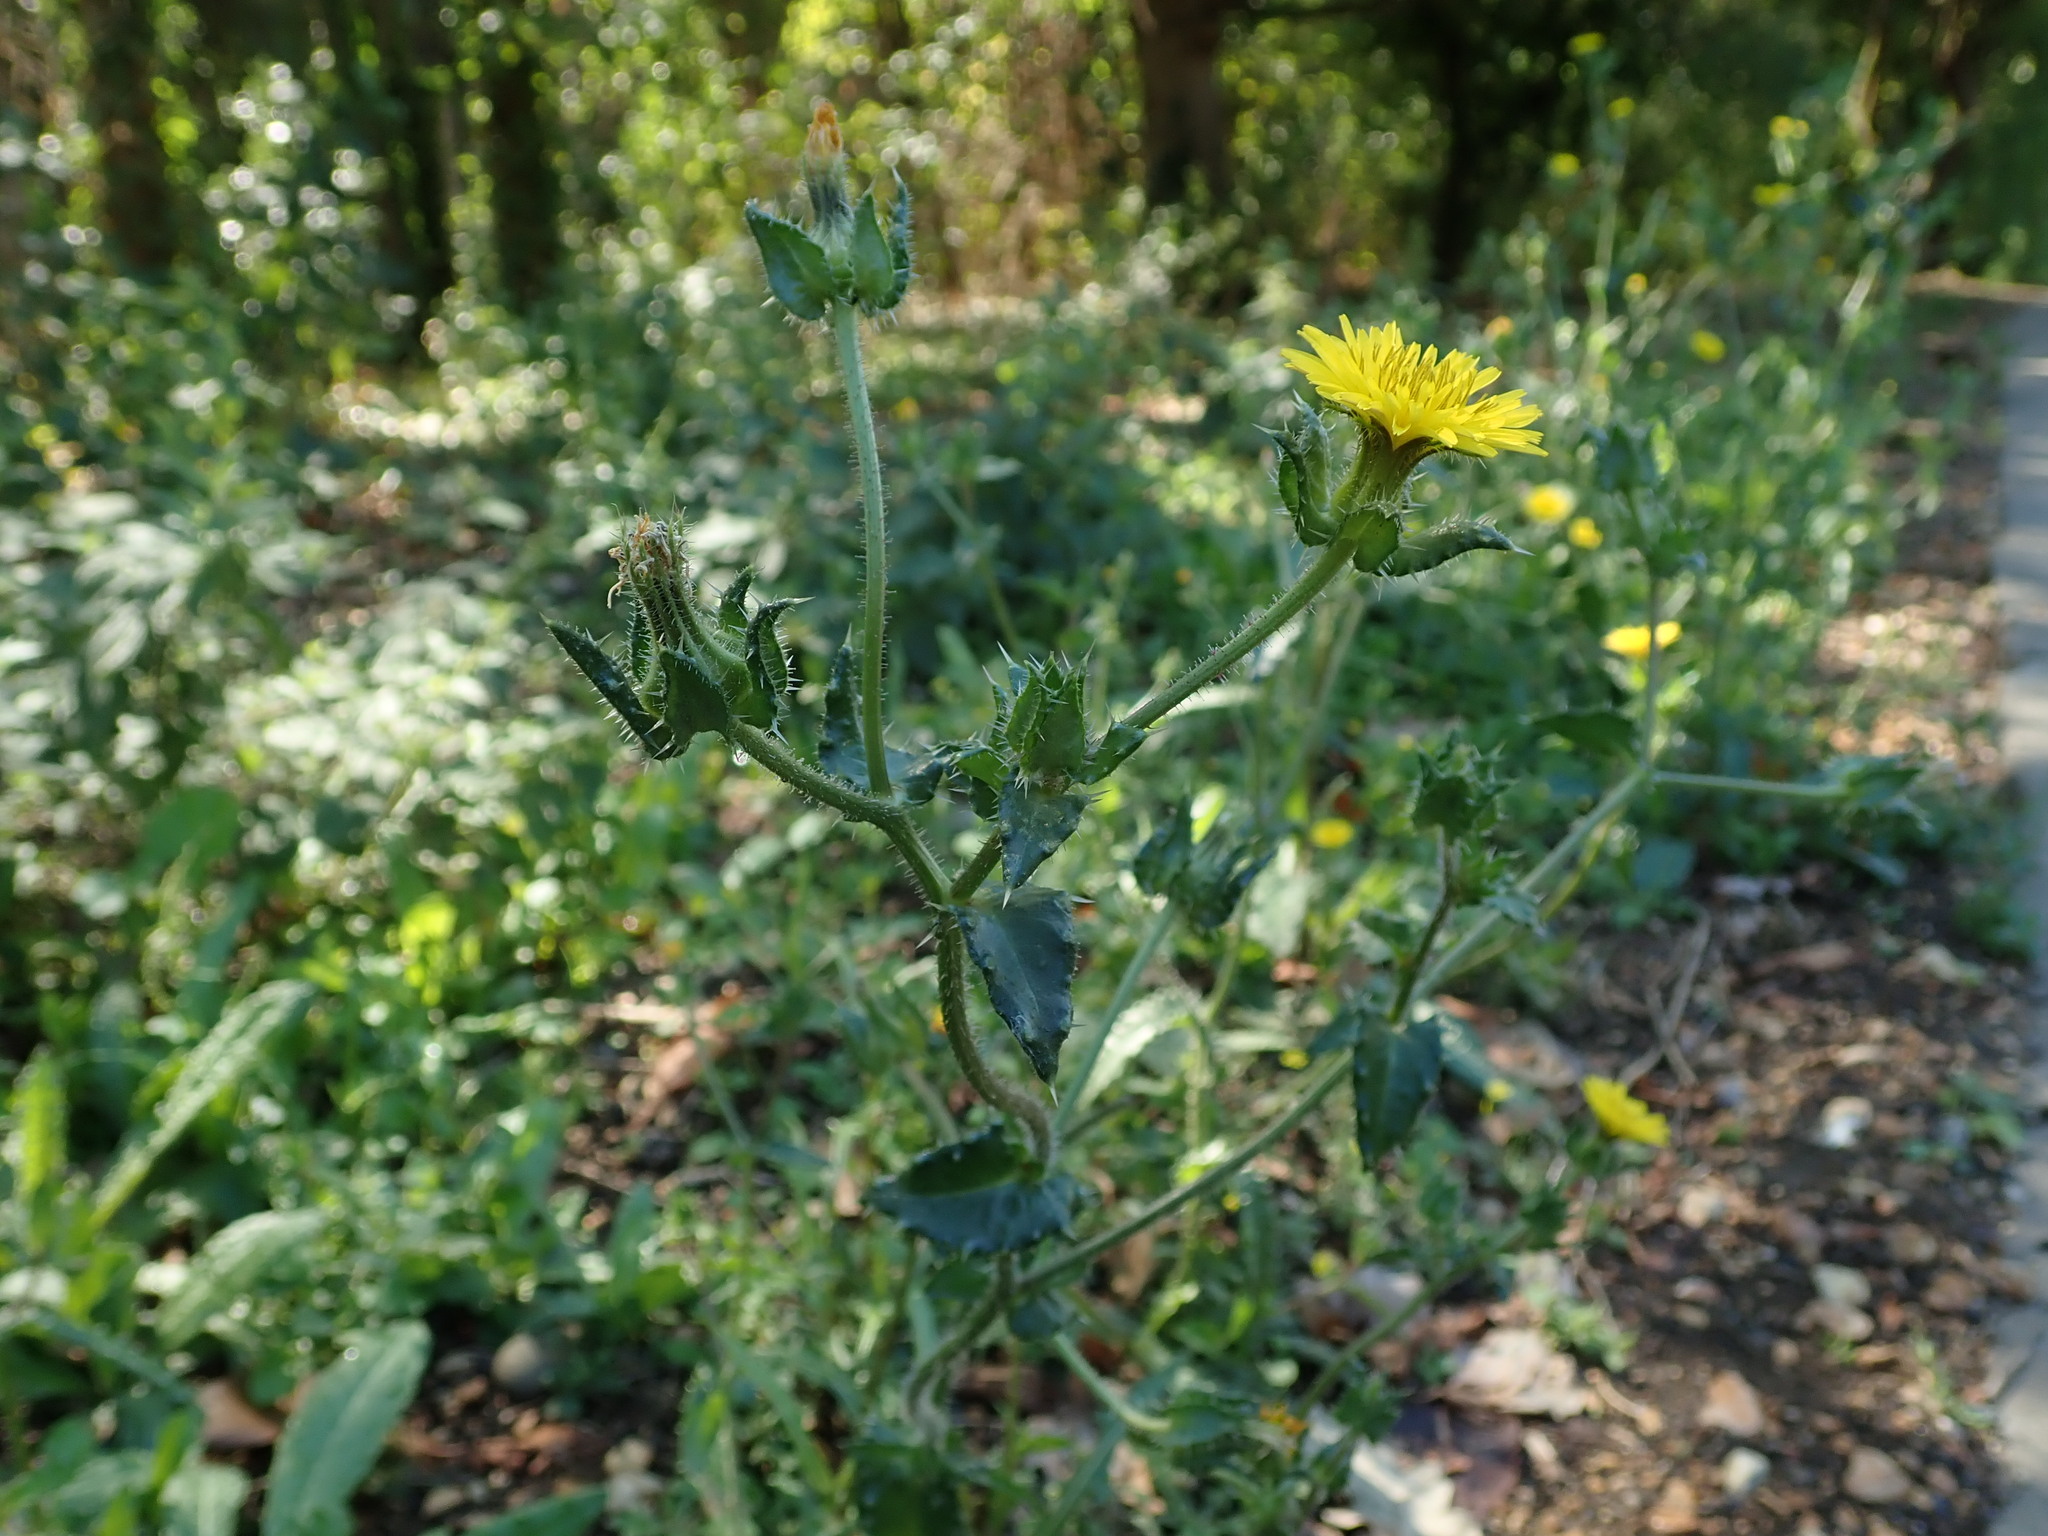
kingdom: Plantae
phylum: Tracheophyta
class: Magnoliopsida
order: Asterales
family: Asteraceae
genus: Helminthotheca
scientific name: Helminthotheca echioides
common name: Ox-tongue
